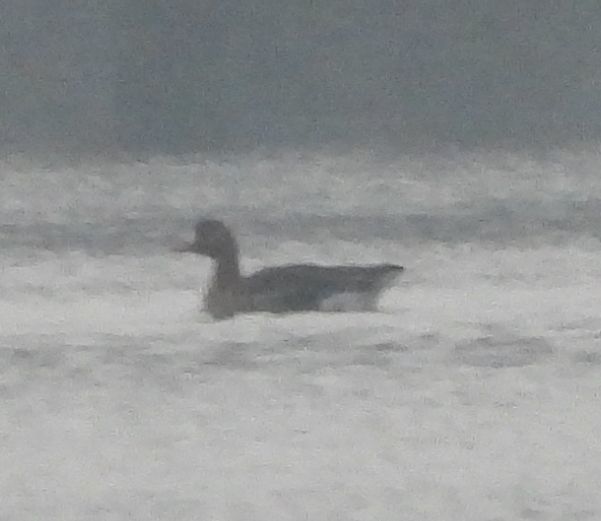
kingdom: Animalia
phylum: Chordata
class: Aves
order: Anseriformes
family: Anatidae
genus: Anser
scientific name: Anser albifrons
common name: Greater white-fronted goose
